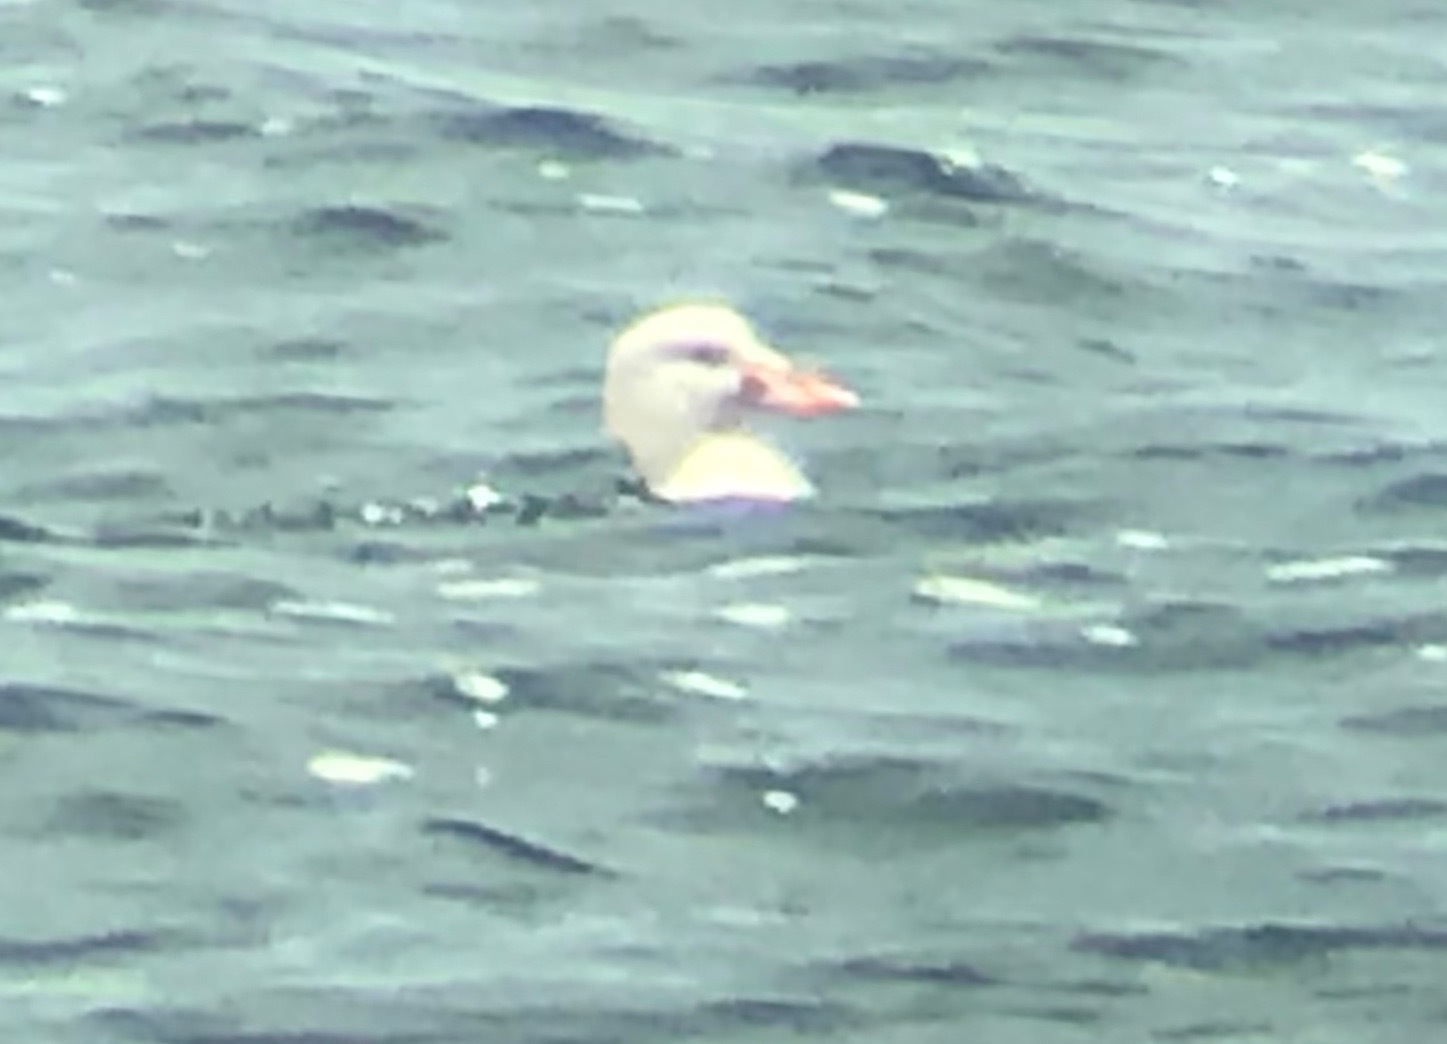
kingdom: Animalia
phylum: Chordata
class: Aves
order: Anseriformes
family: Anatidae
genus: Melanitta
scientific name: Melanitta perspicillata
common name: Surf scoter
